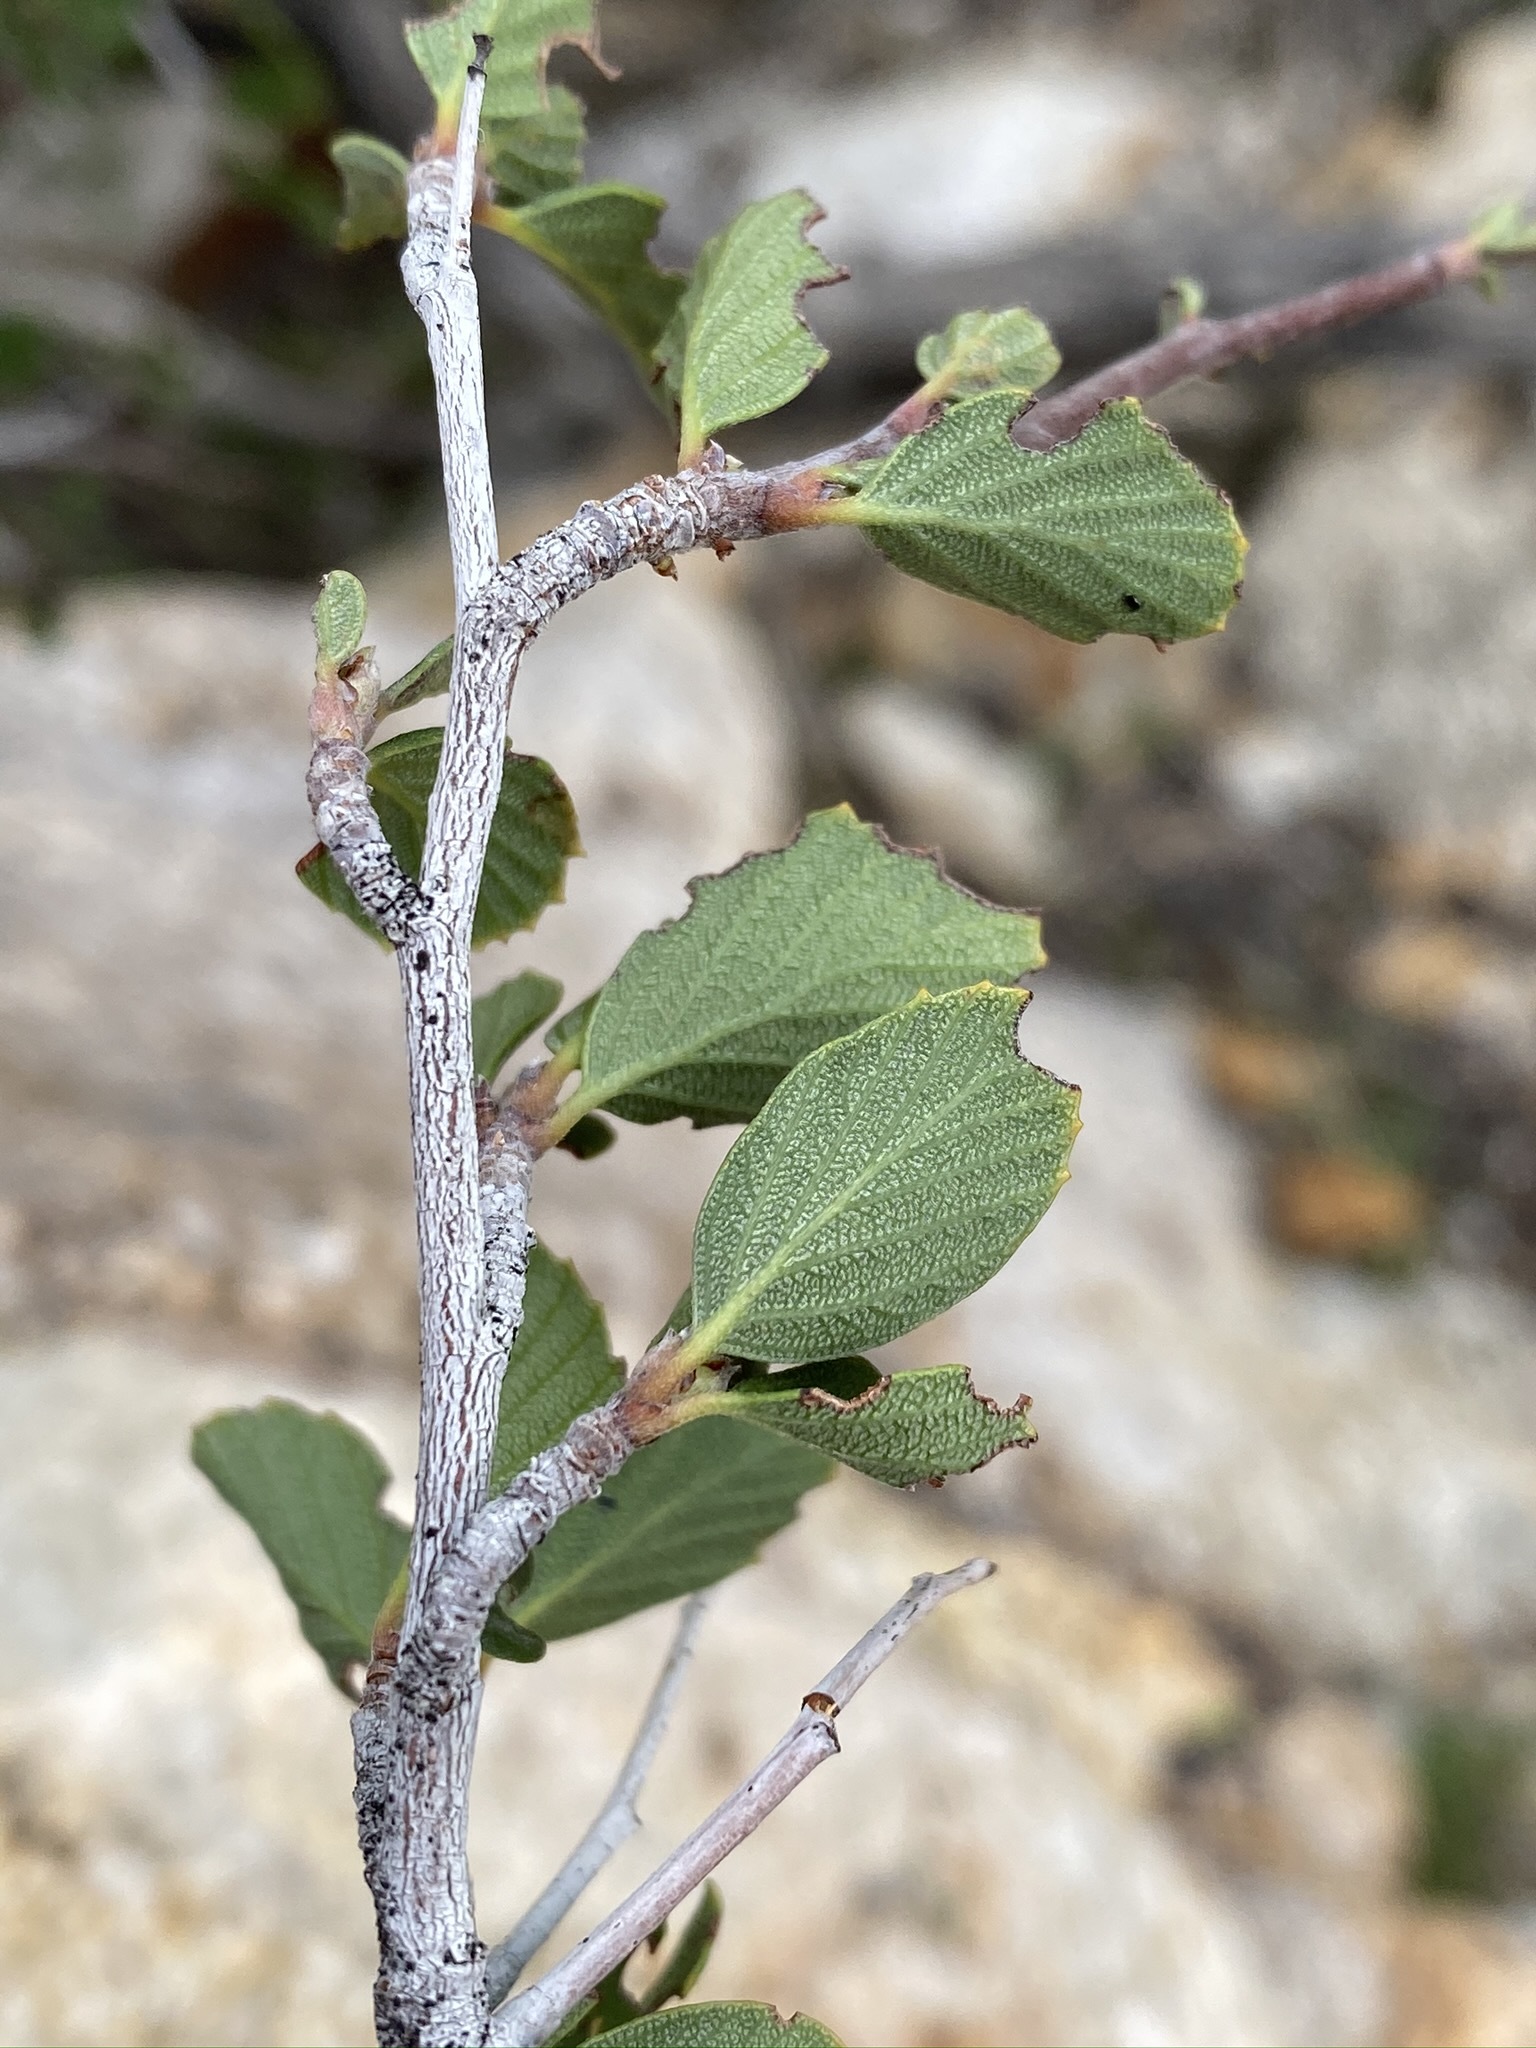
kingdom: Plantae
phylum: Tracheophyta
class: Magnoliopsida
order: Rosales
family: Rosaceae
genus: Cercocarpus
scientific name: Cercocarpus betuloides
